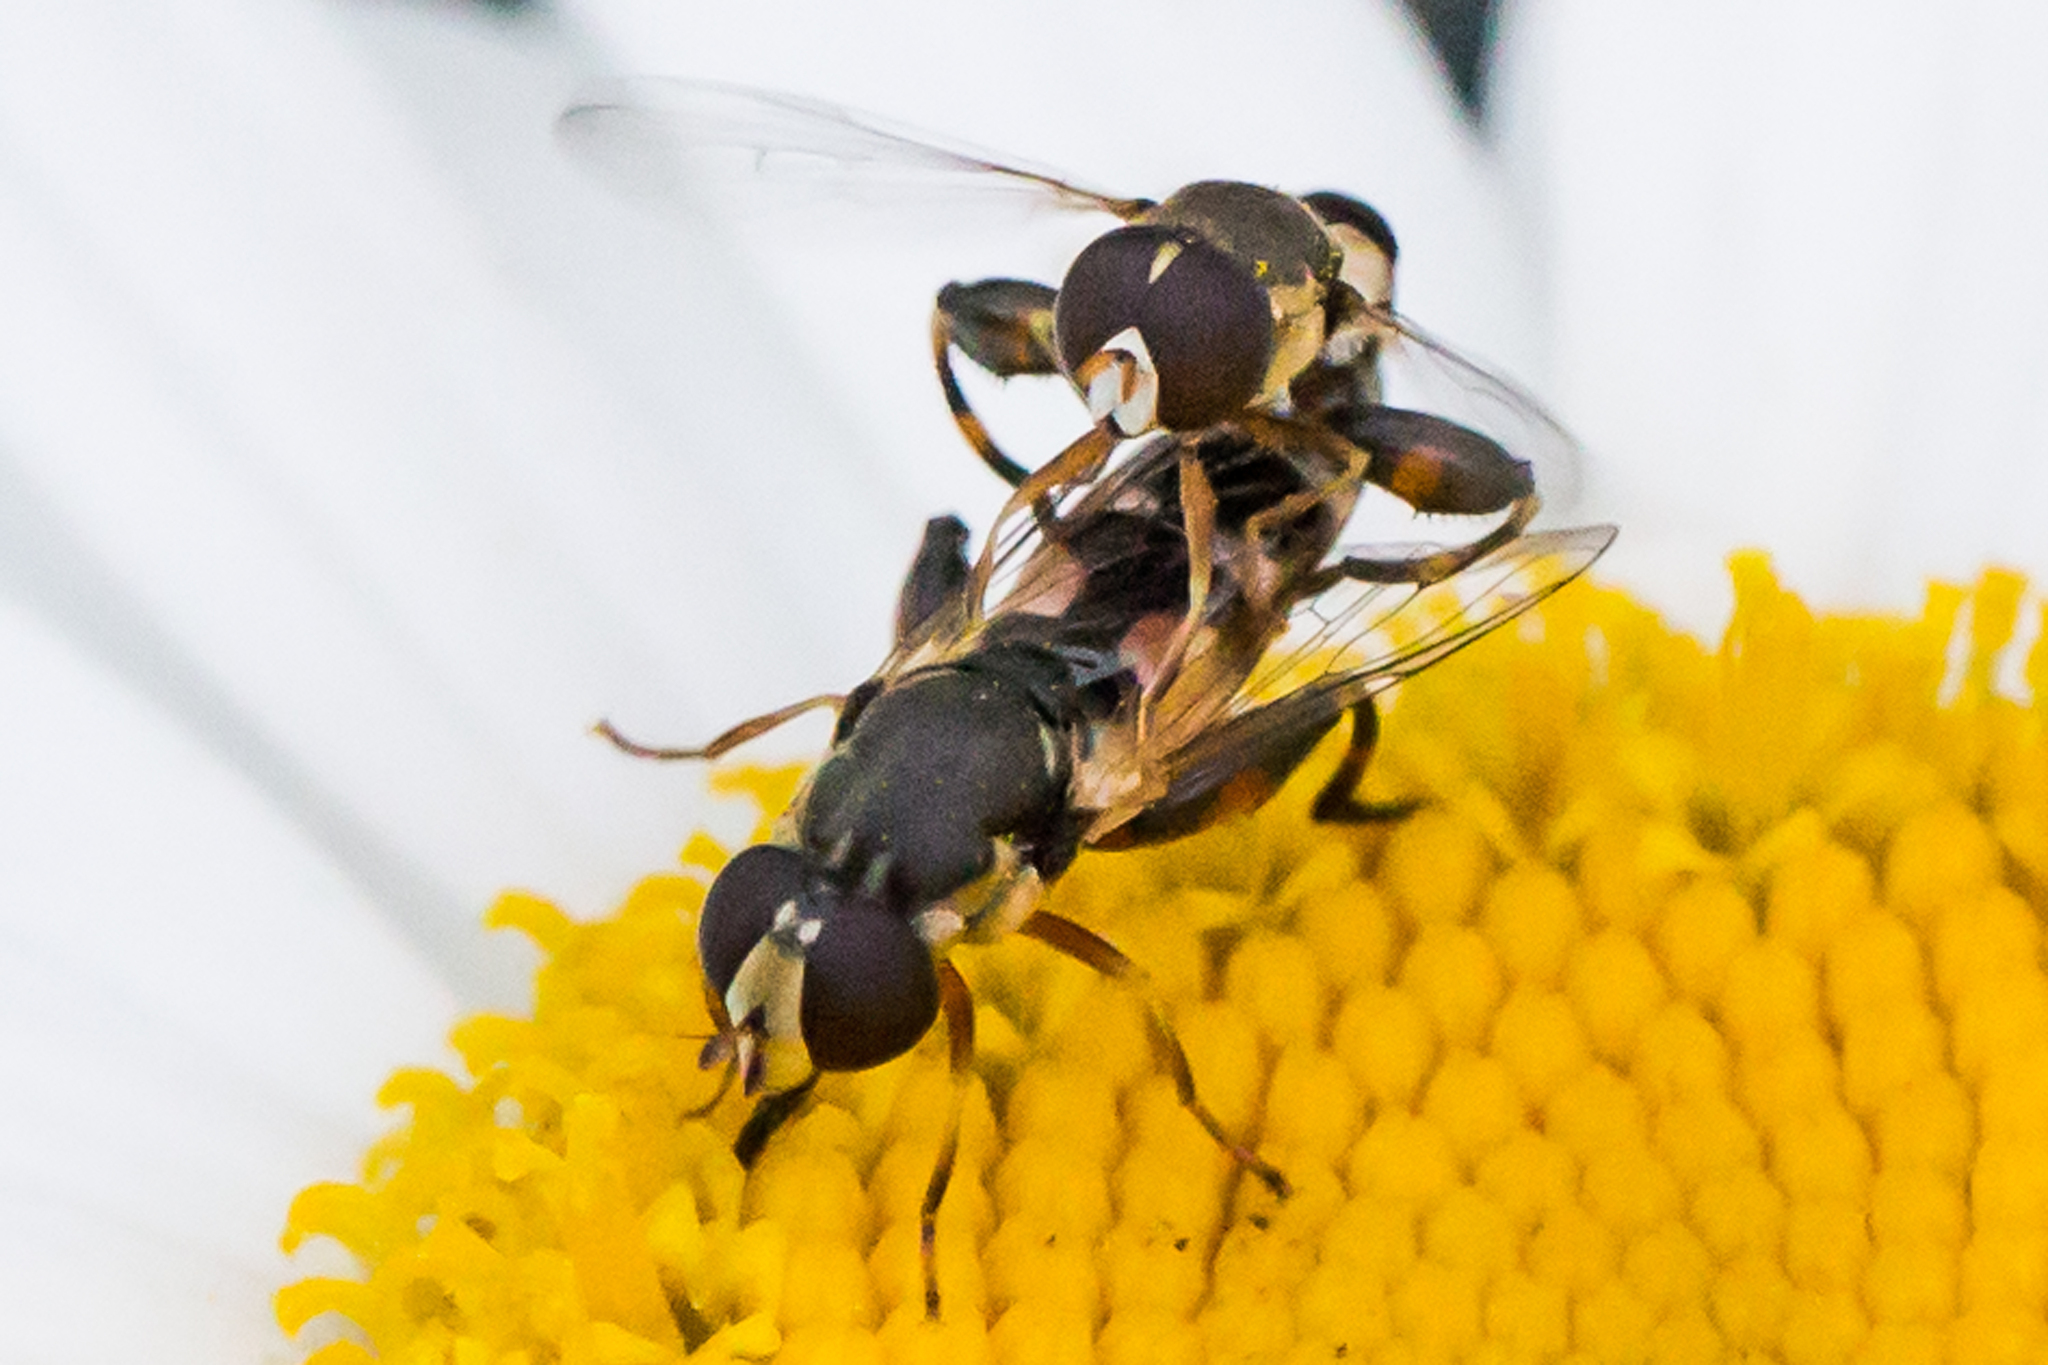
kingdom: Animalia
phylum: Arthropoda
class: Insecta
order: Diptera
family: Syrphidae
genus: Syritta
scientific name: Syritta pipiens
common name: Hover fly
